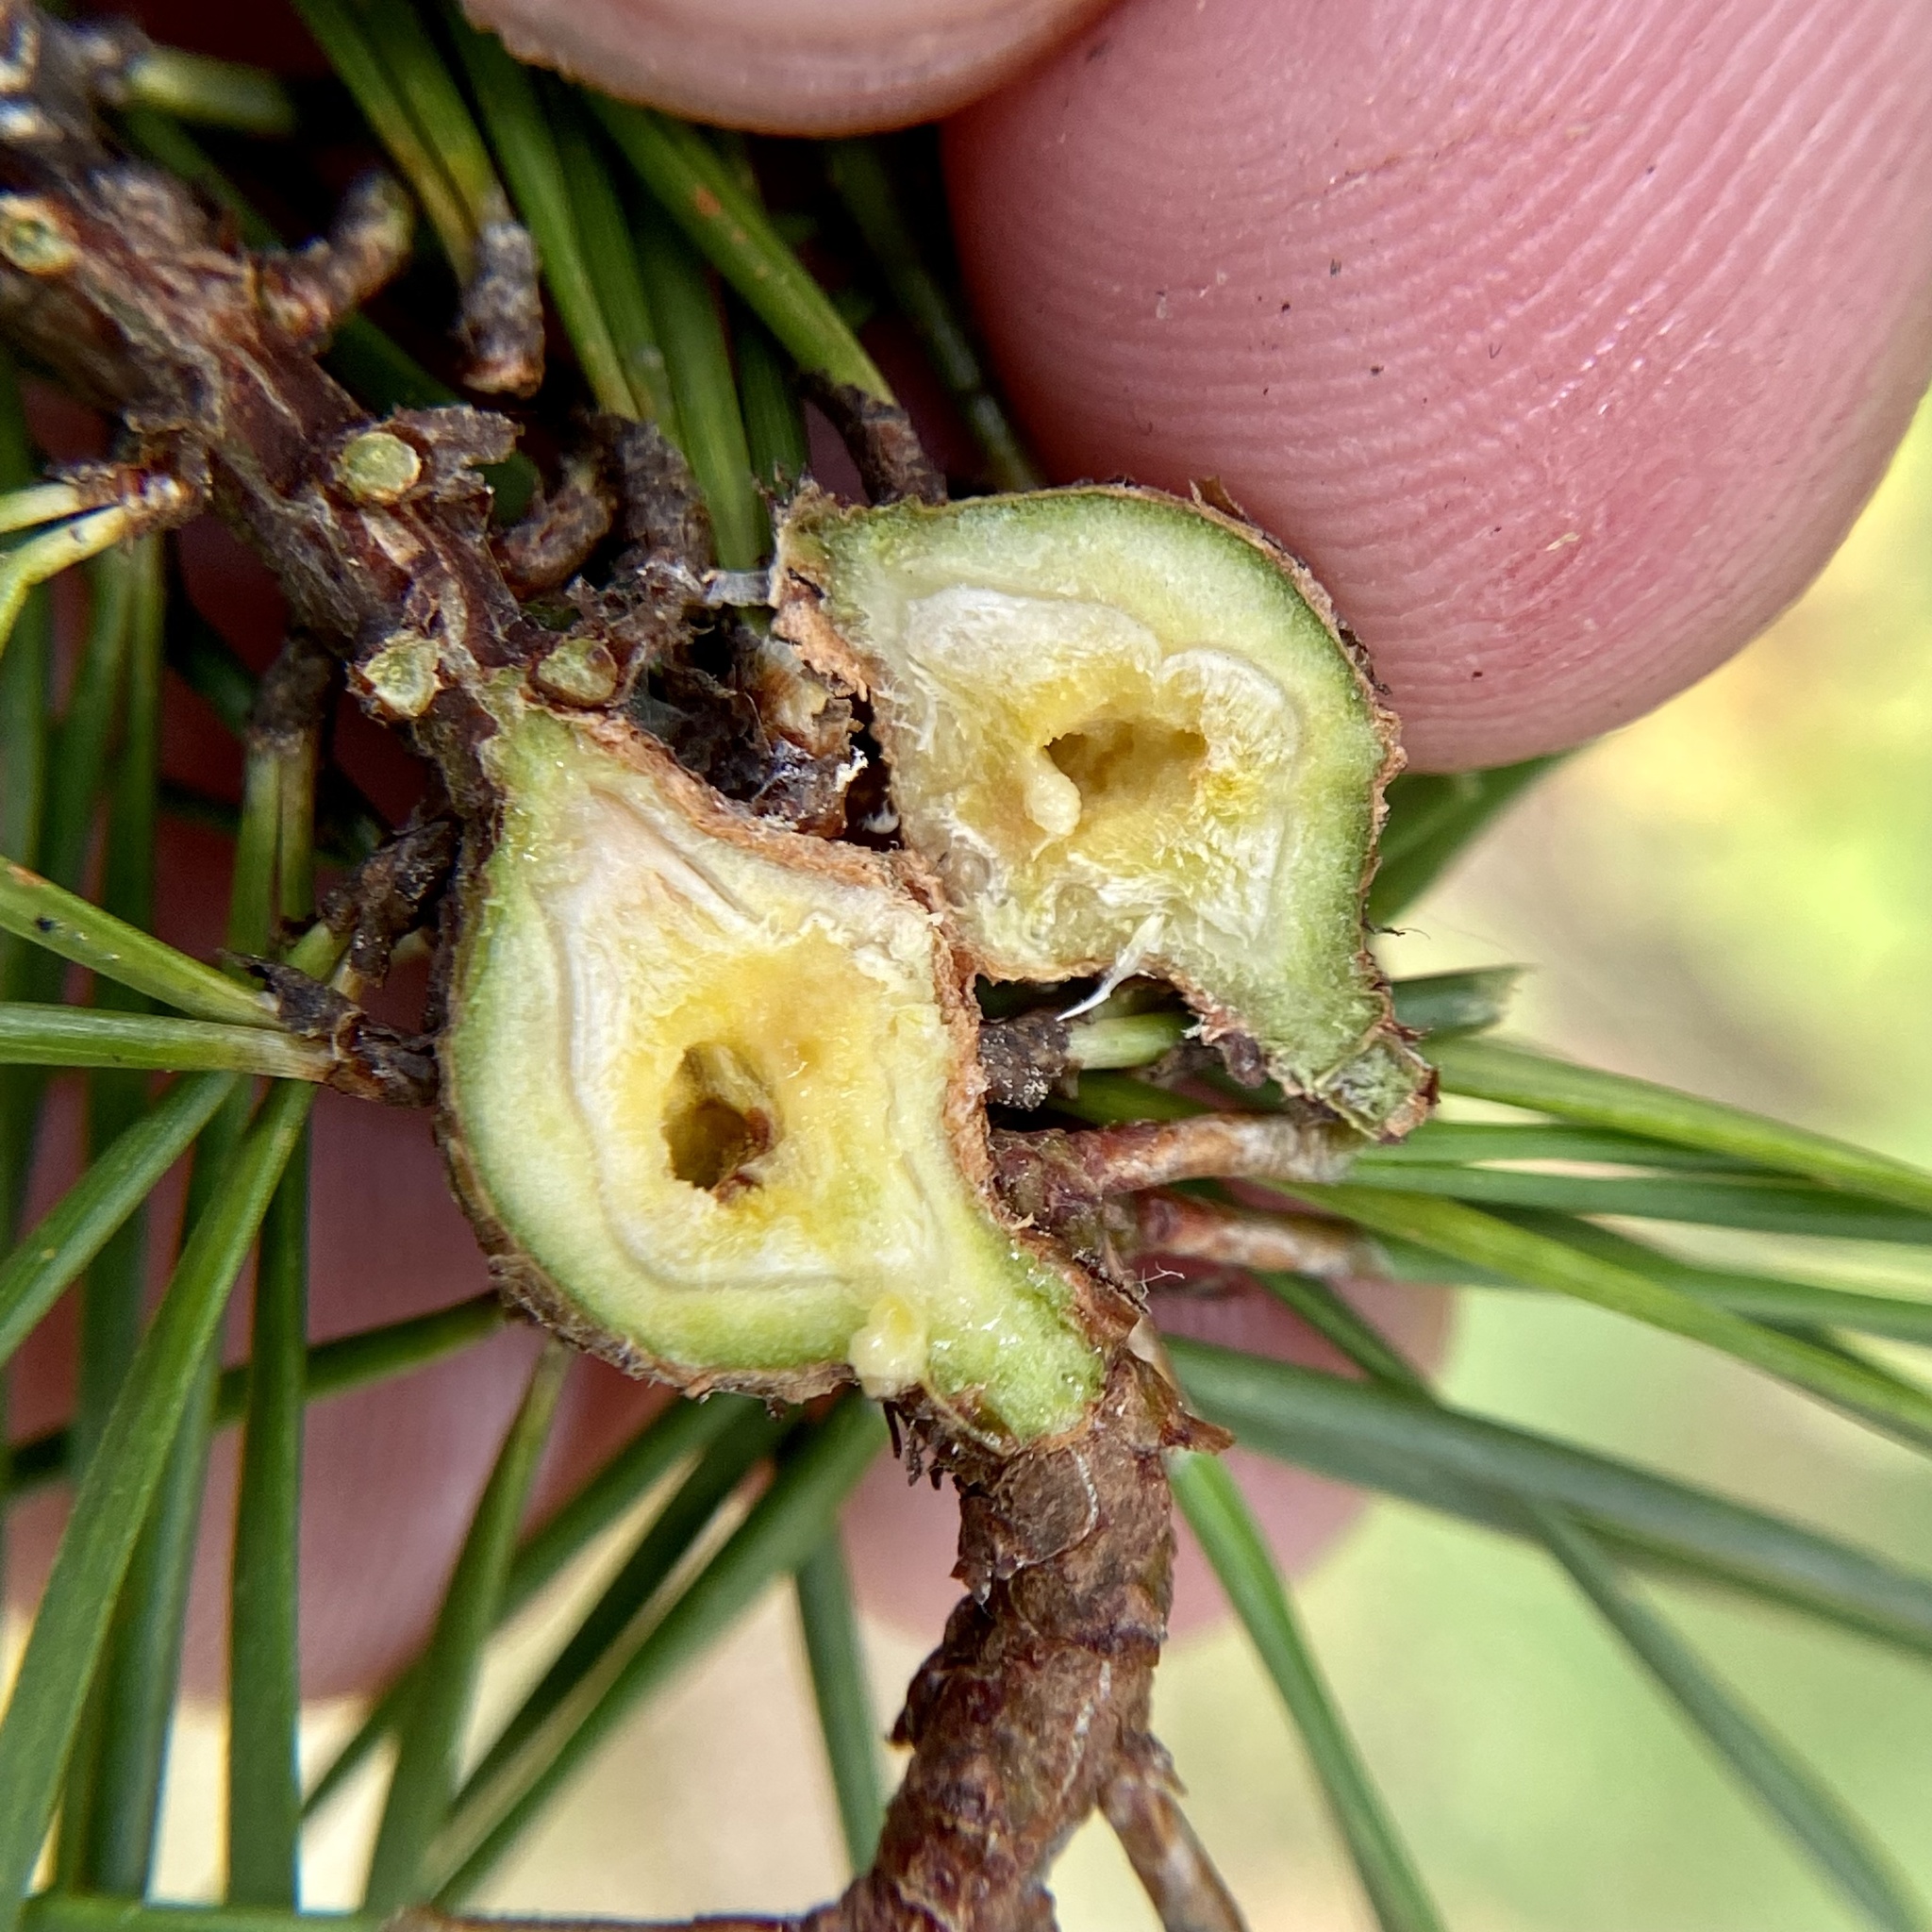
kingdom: Animalia
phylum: Arthropoda
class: Insecta
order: Coleoptera
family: Brentidae
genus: Podapion
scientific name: Podapion gallicola
